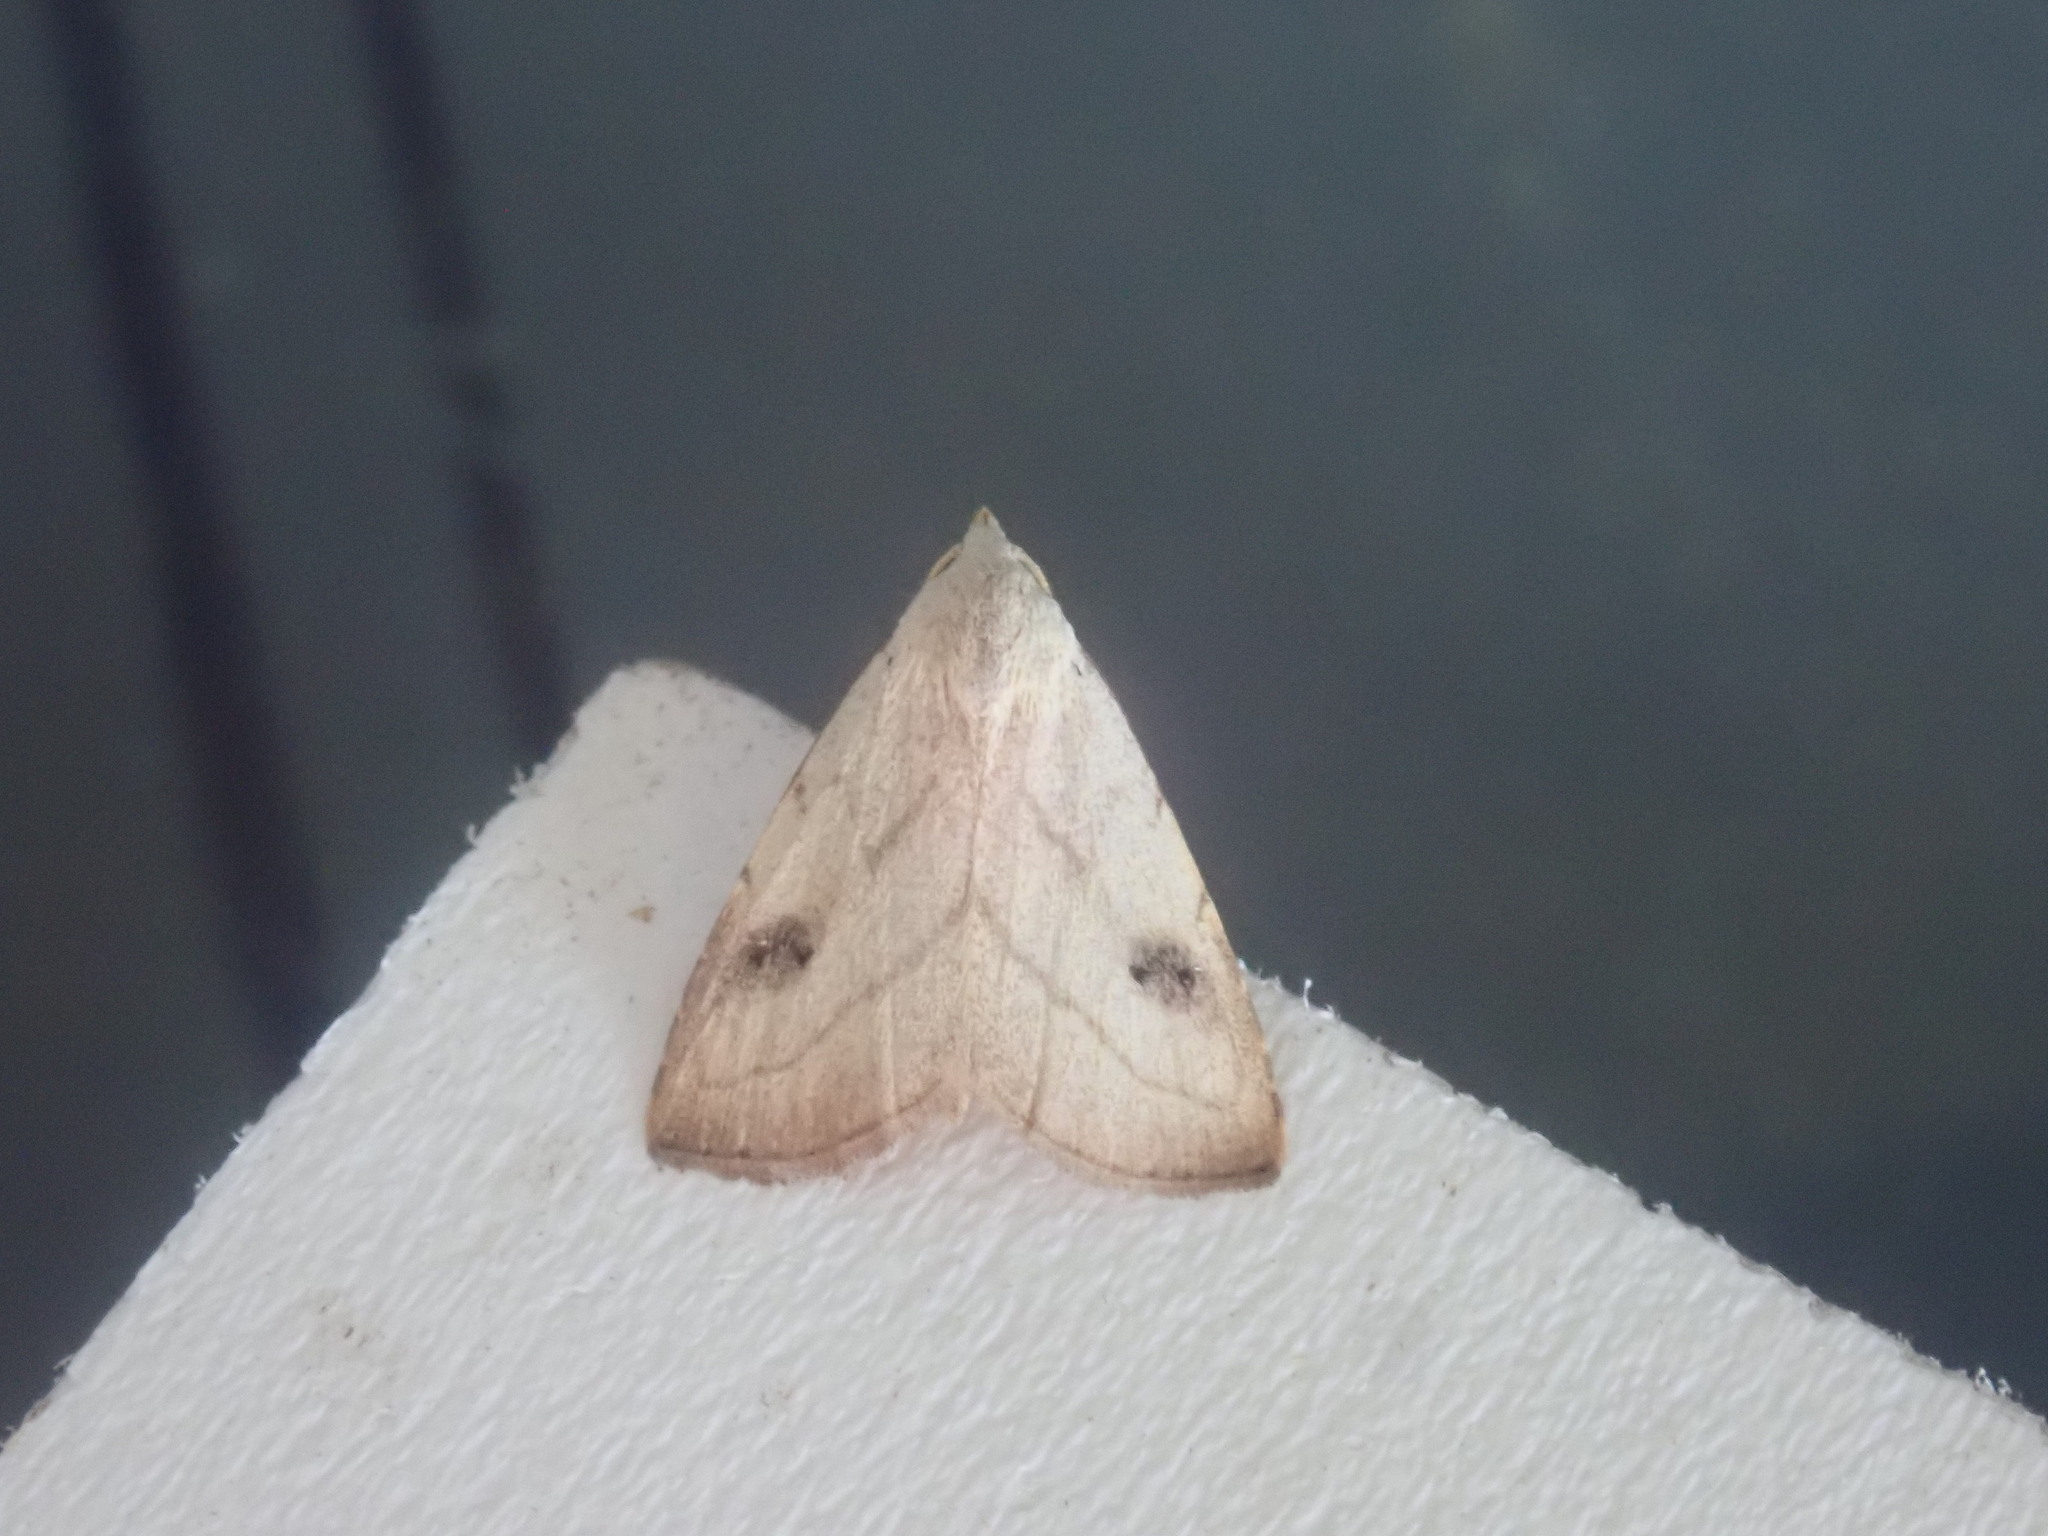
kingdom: Animalia
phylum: Arthropoda
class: Insecta
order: Lepidoptera
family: Erebidae
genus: Rivula
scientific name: Rivula propinqualis
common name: Spotted grass moth
